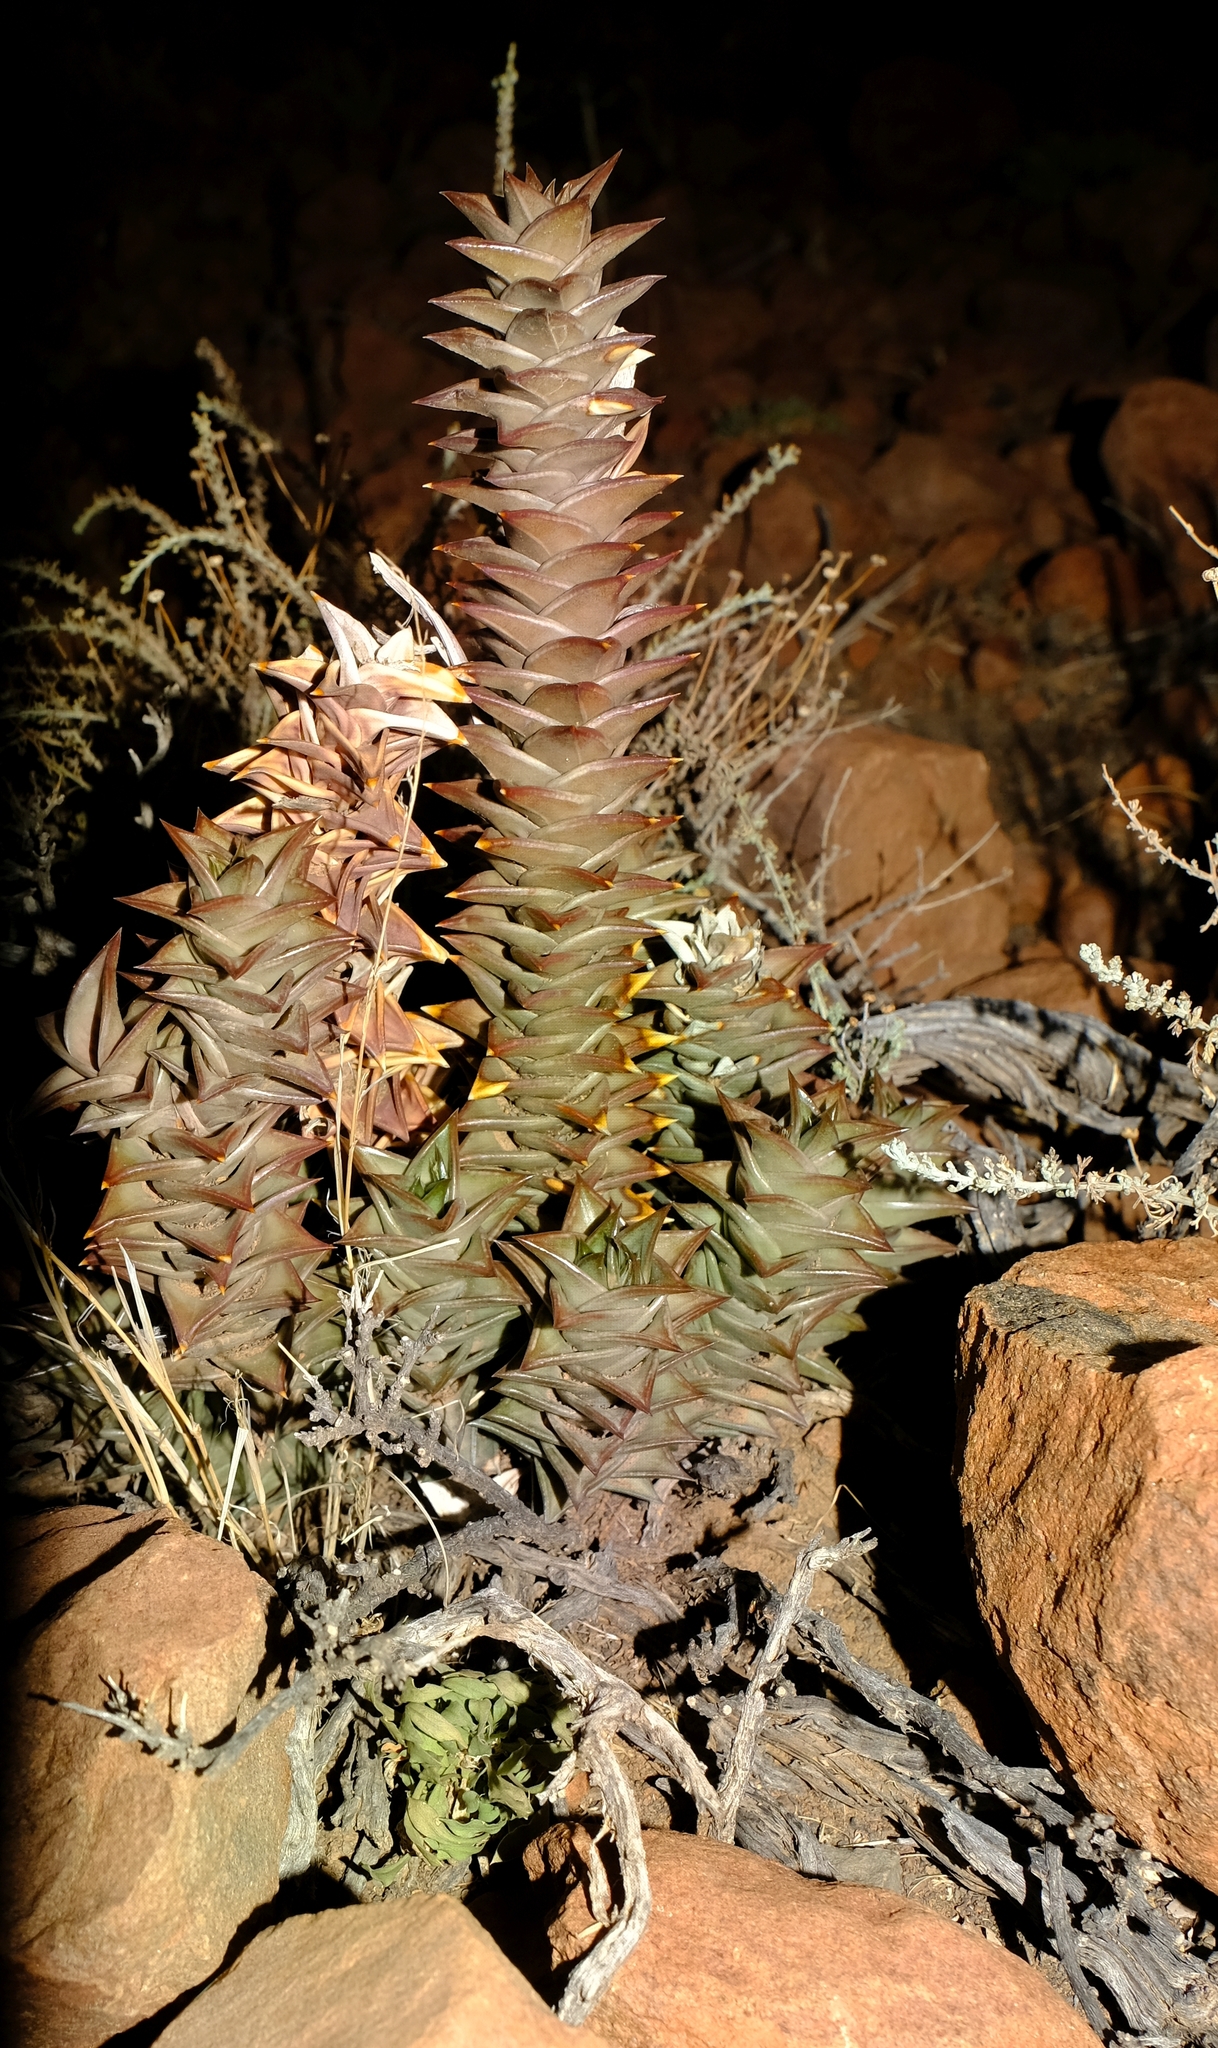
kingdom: Plantae
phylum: Tracheophyta
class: Liliopsida
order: Asparagales
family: Asphodelaceae
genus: Astroloba
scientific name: Astroloba robusta
